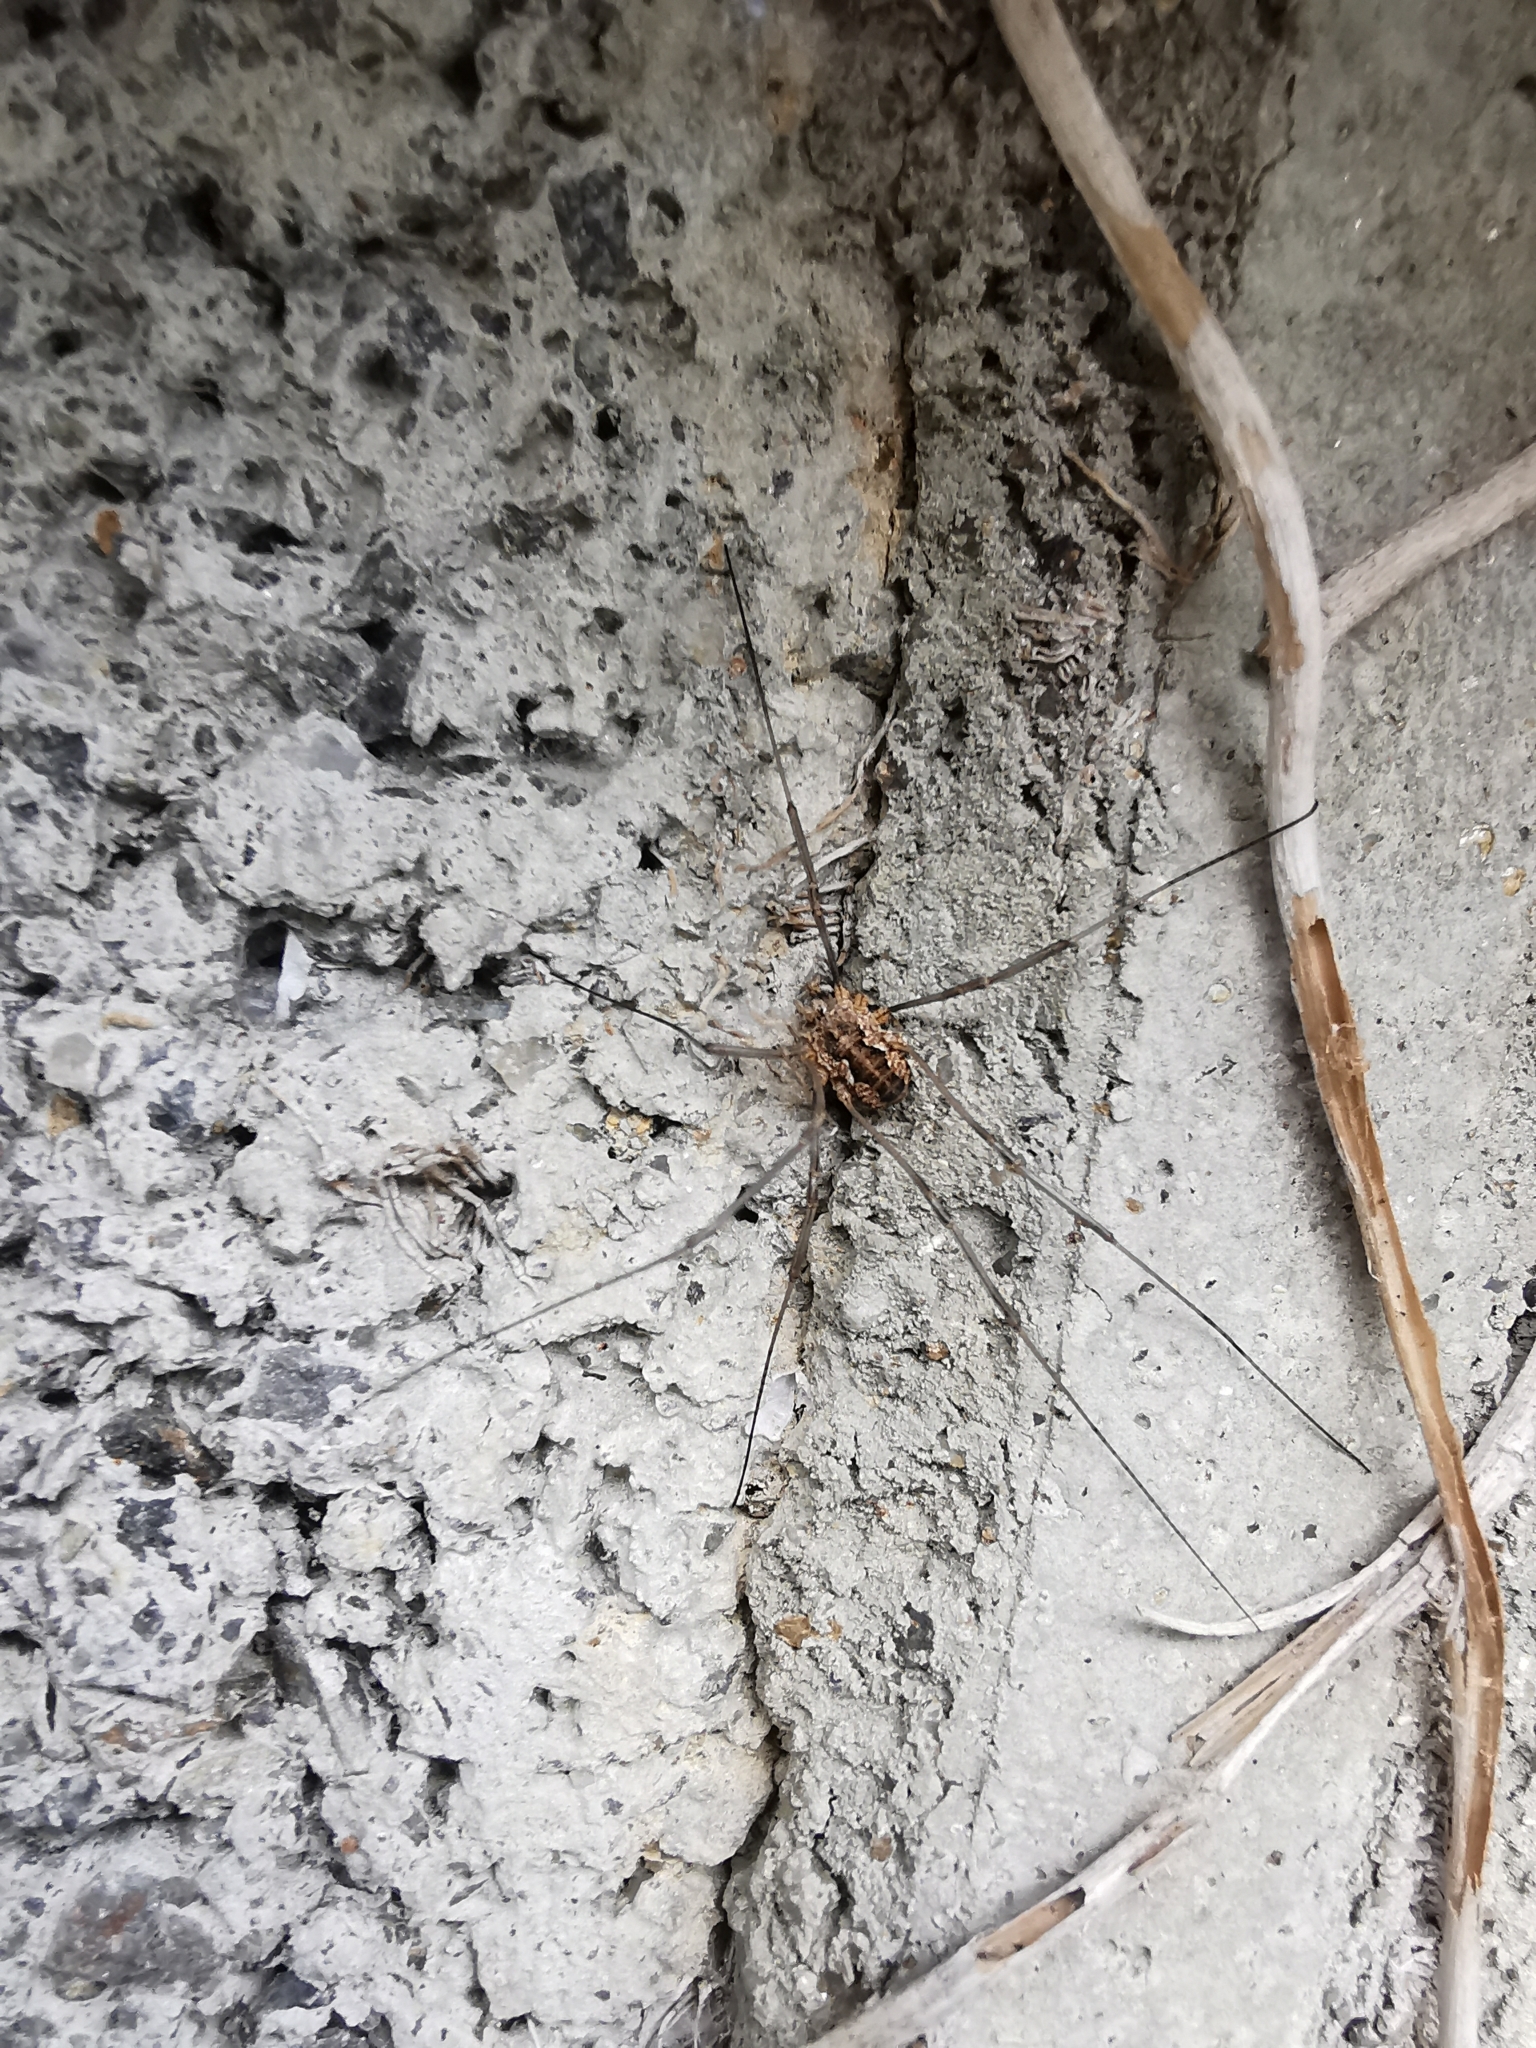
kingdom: Animalia
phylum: Arthropoda
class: Arachnida
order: Opiliones
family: Phalangiidae
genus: Phalangium
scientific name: Phalangium opilio
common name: Daddy longleg
